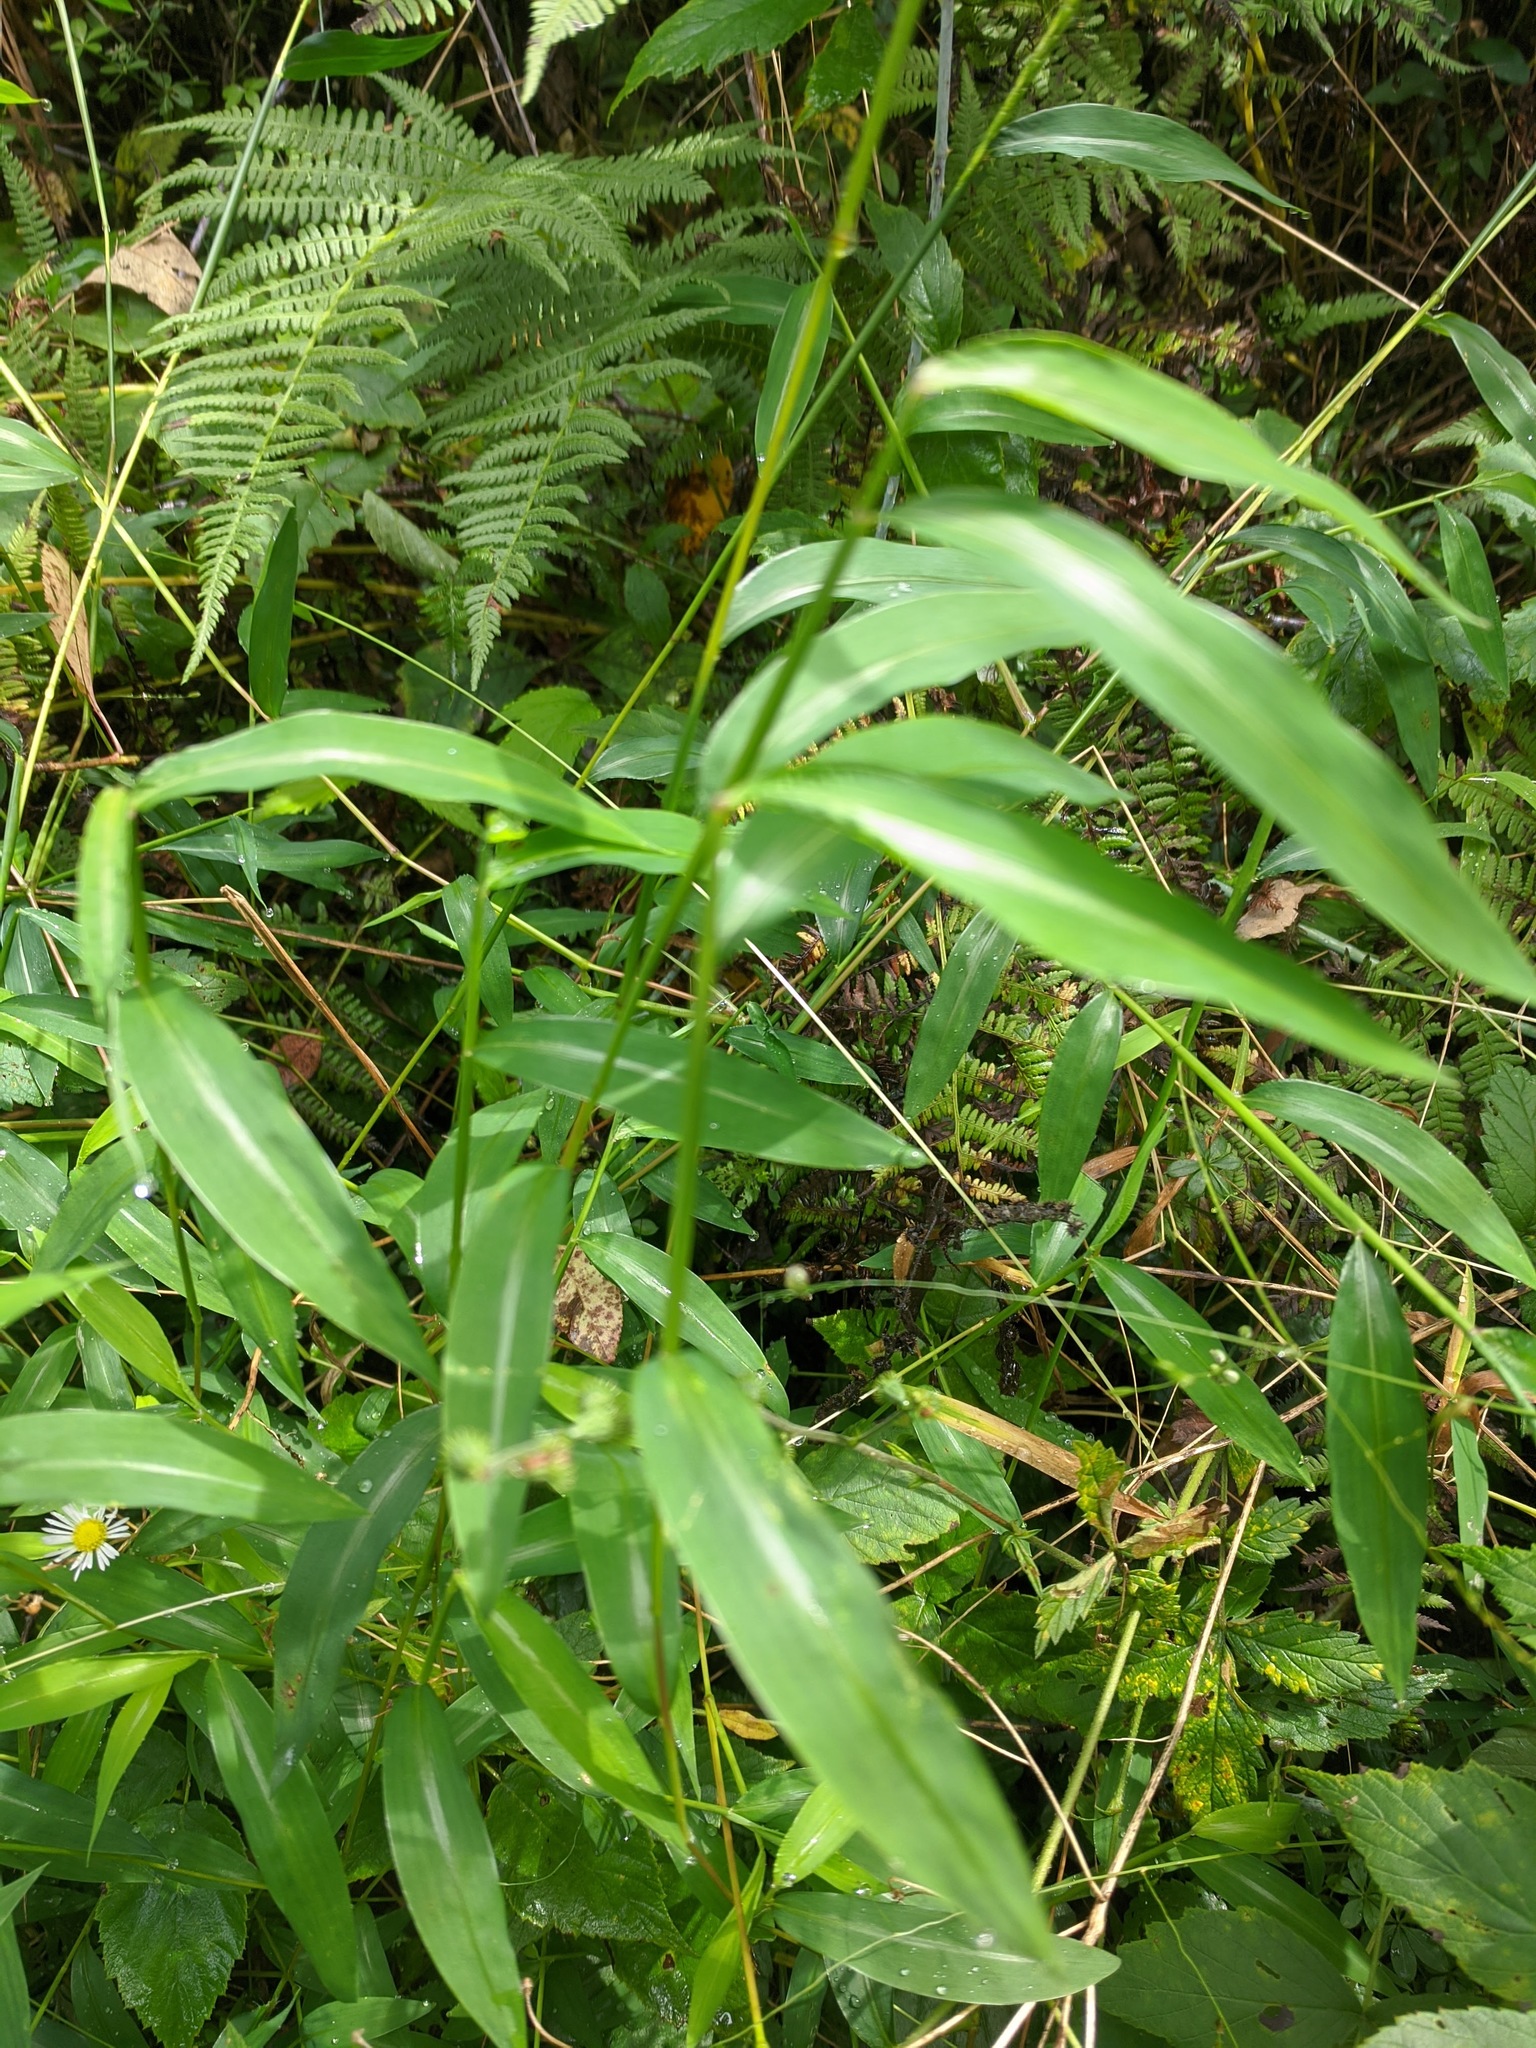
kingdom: Plantae
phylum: Tracheophyta
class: Liliopsida
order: Poales
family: Poaceae
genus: Microstegium
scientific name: Microstegium vimineum
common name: Japanese stiltgrass
